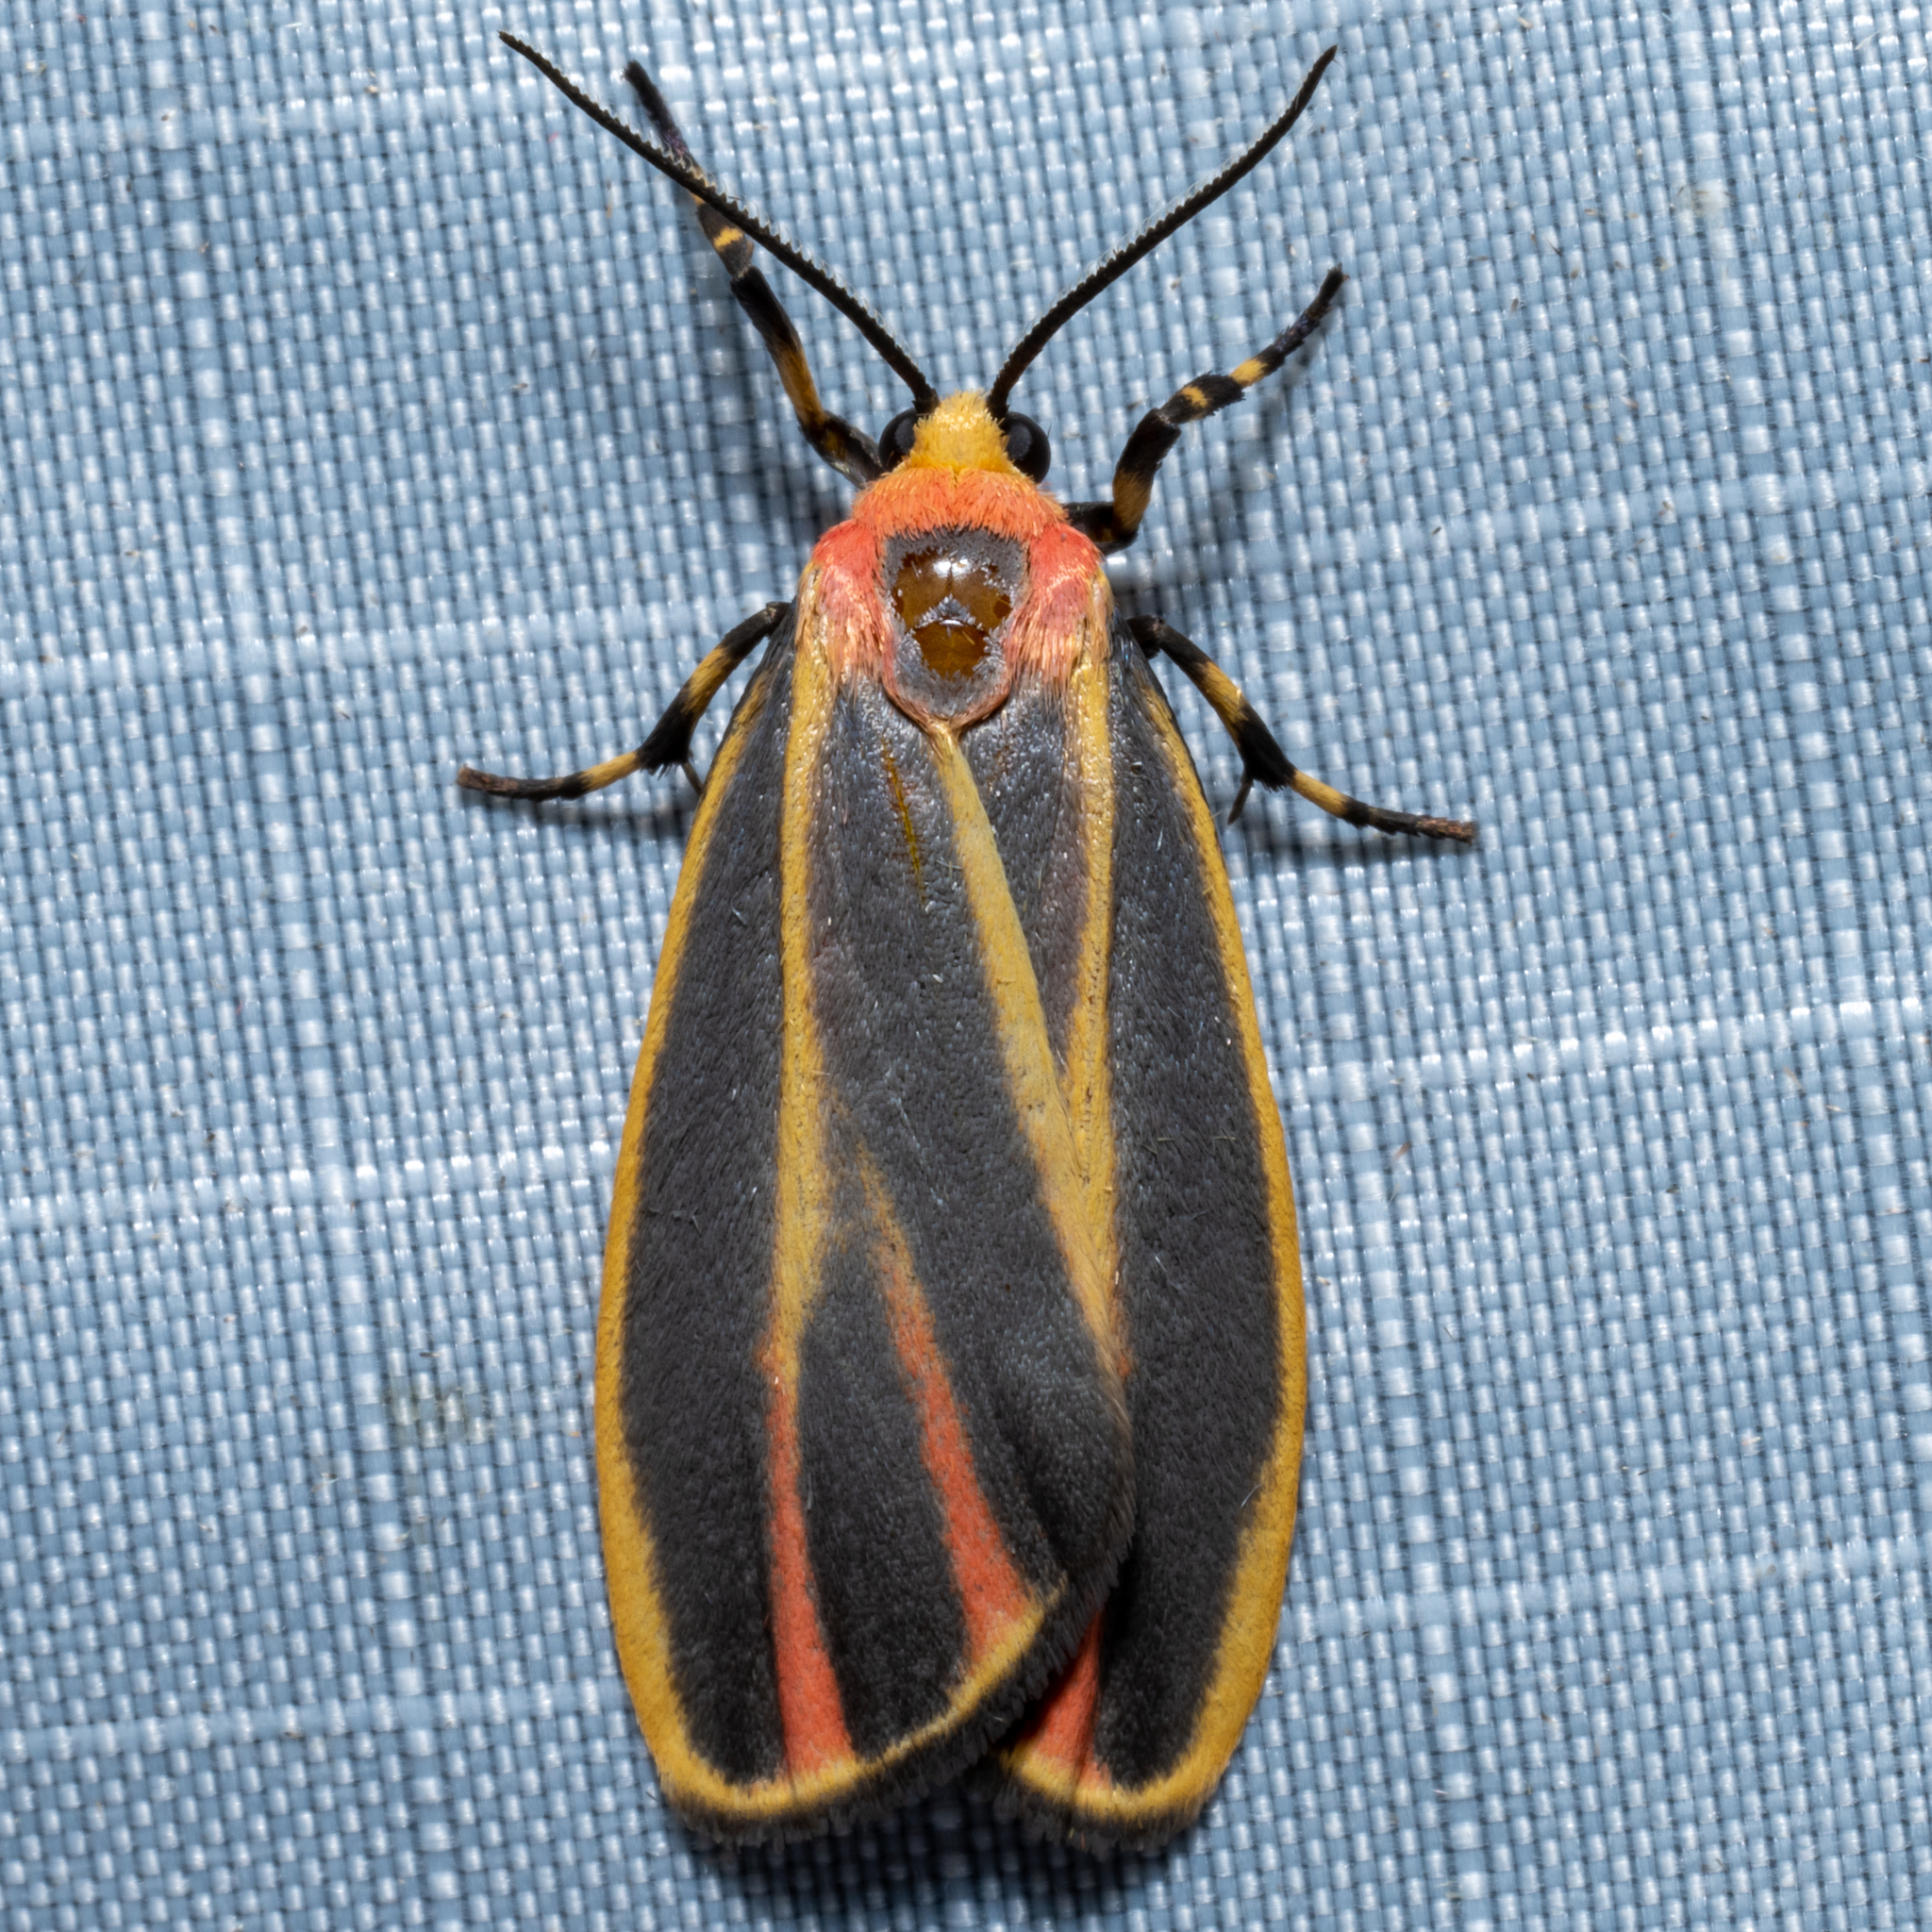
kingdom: Animalia
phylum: Arthropoda
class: Insecta
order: Lepidoptera
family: Erebidae
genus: Hypoprepia
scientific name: Hypoprepia fucosa
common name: Painted lichen moth
